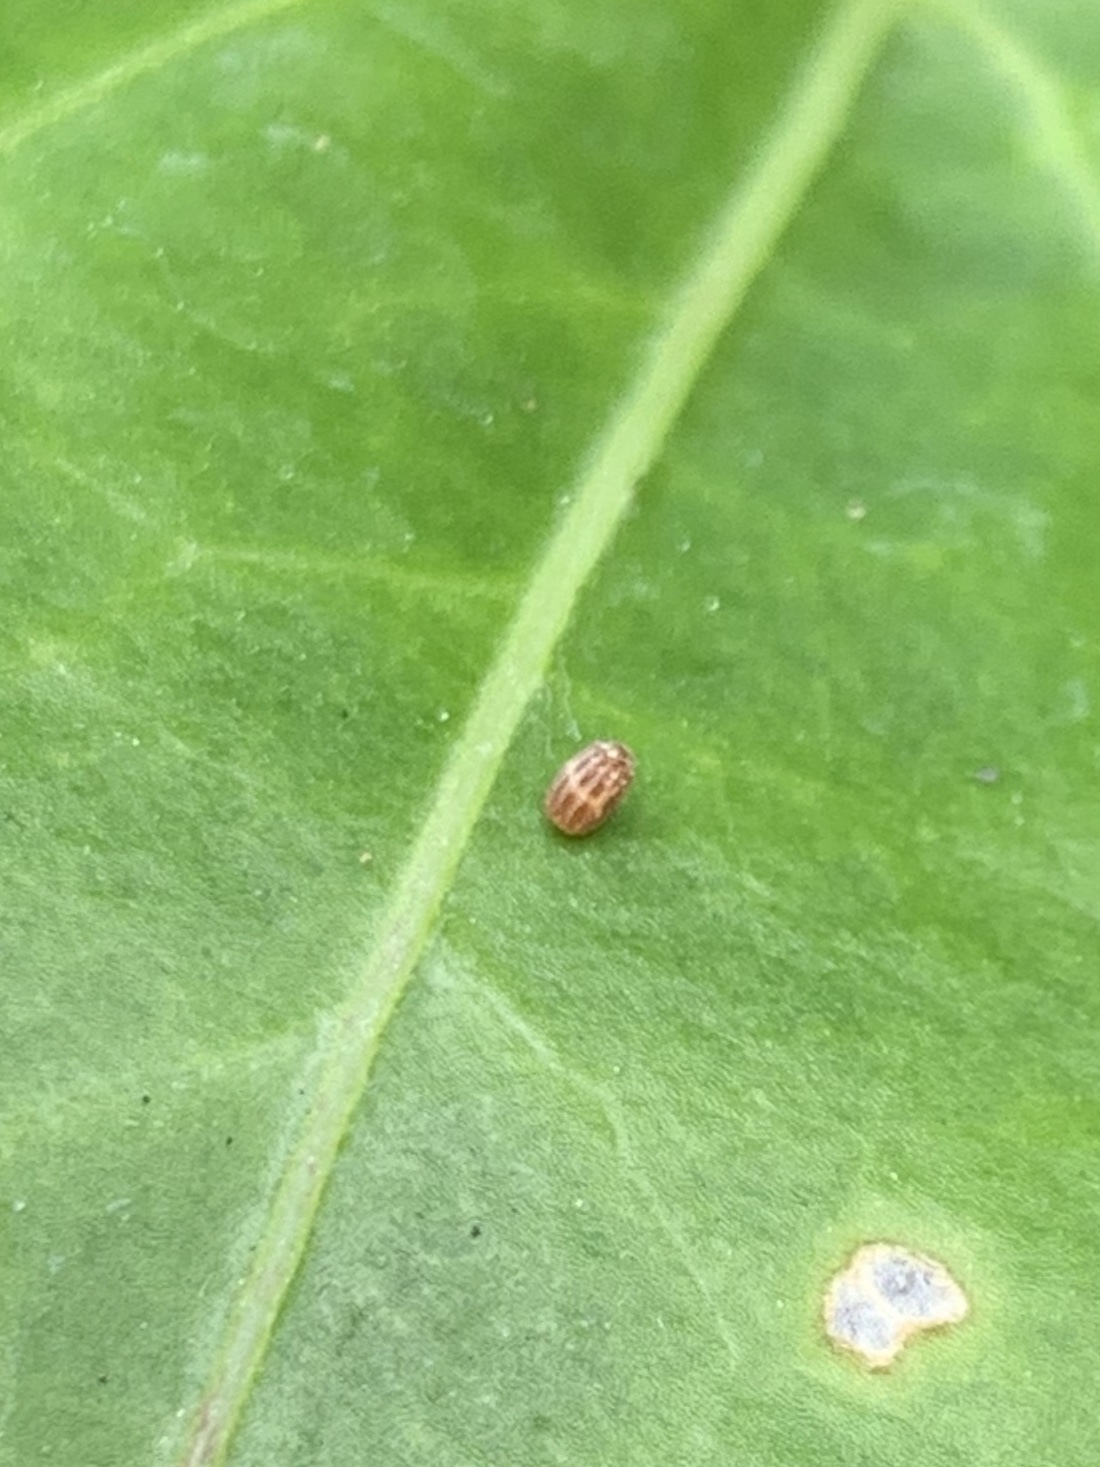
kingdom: Animalia
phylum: Arthropoda
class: Insecta
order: Lepidoptera
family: Nymphalidae
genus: Dione
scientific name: Dione vanillae
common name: Gulf fritillary
